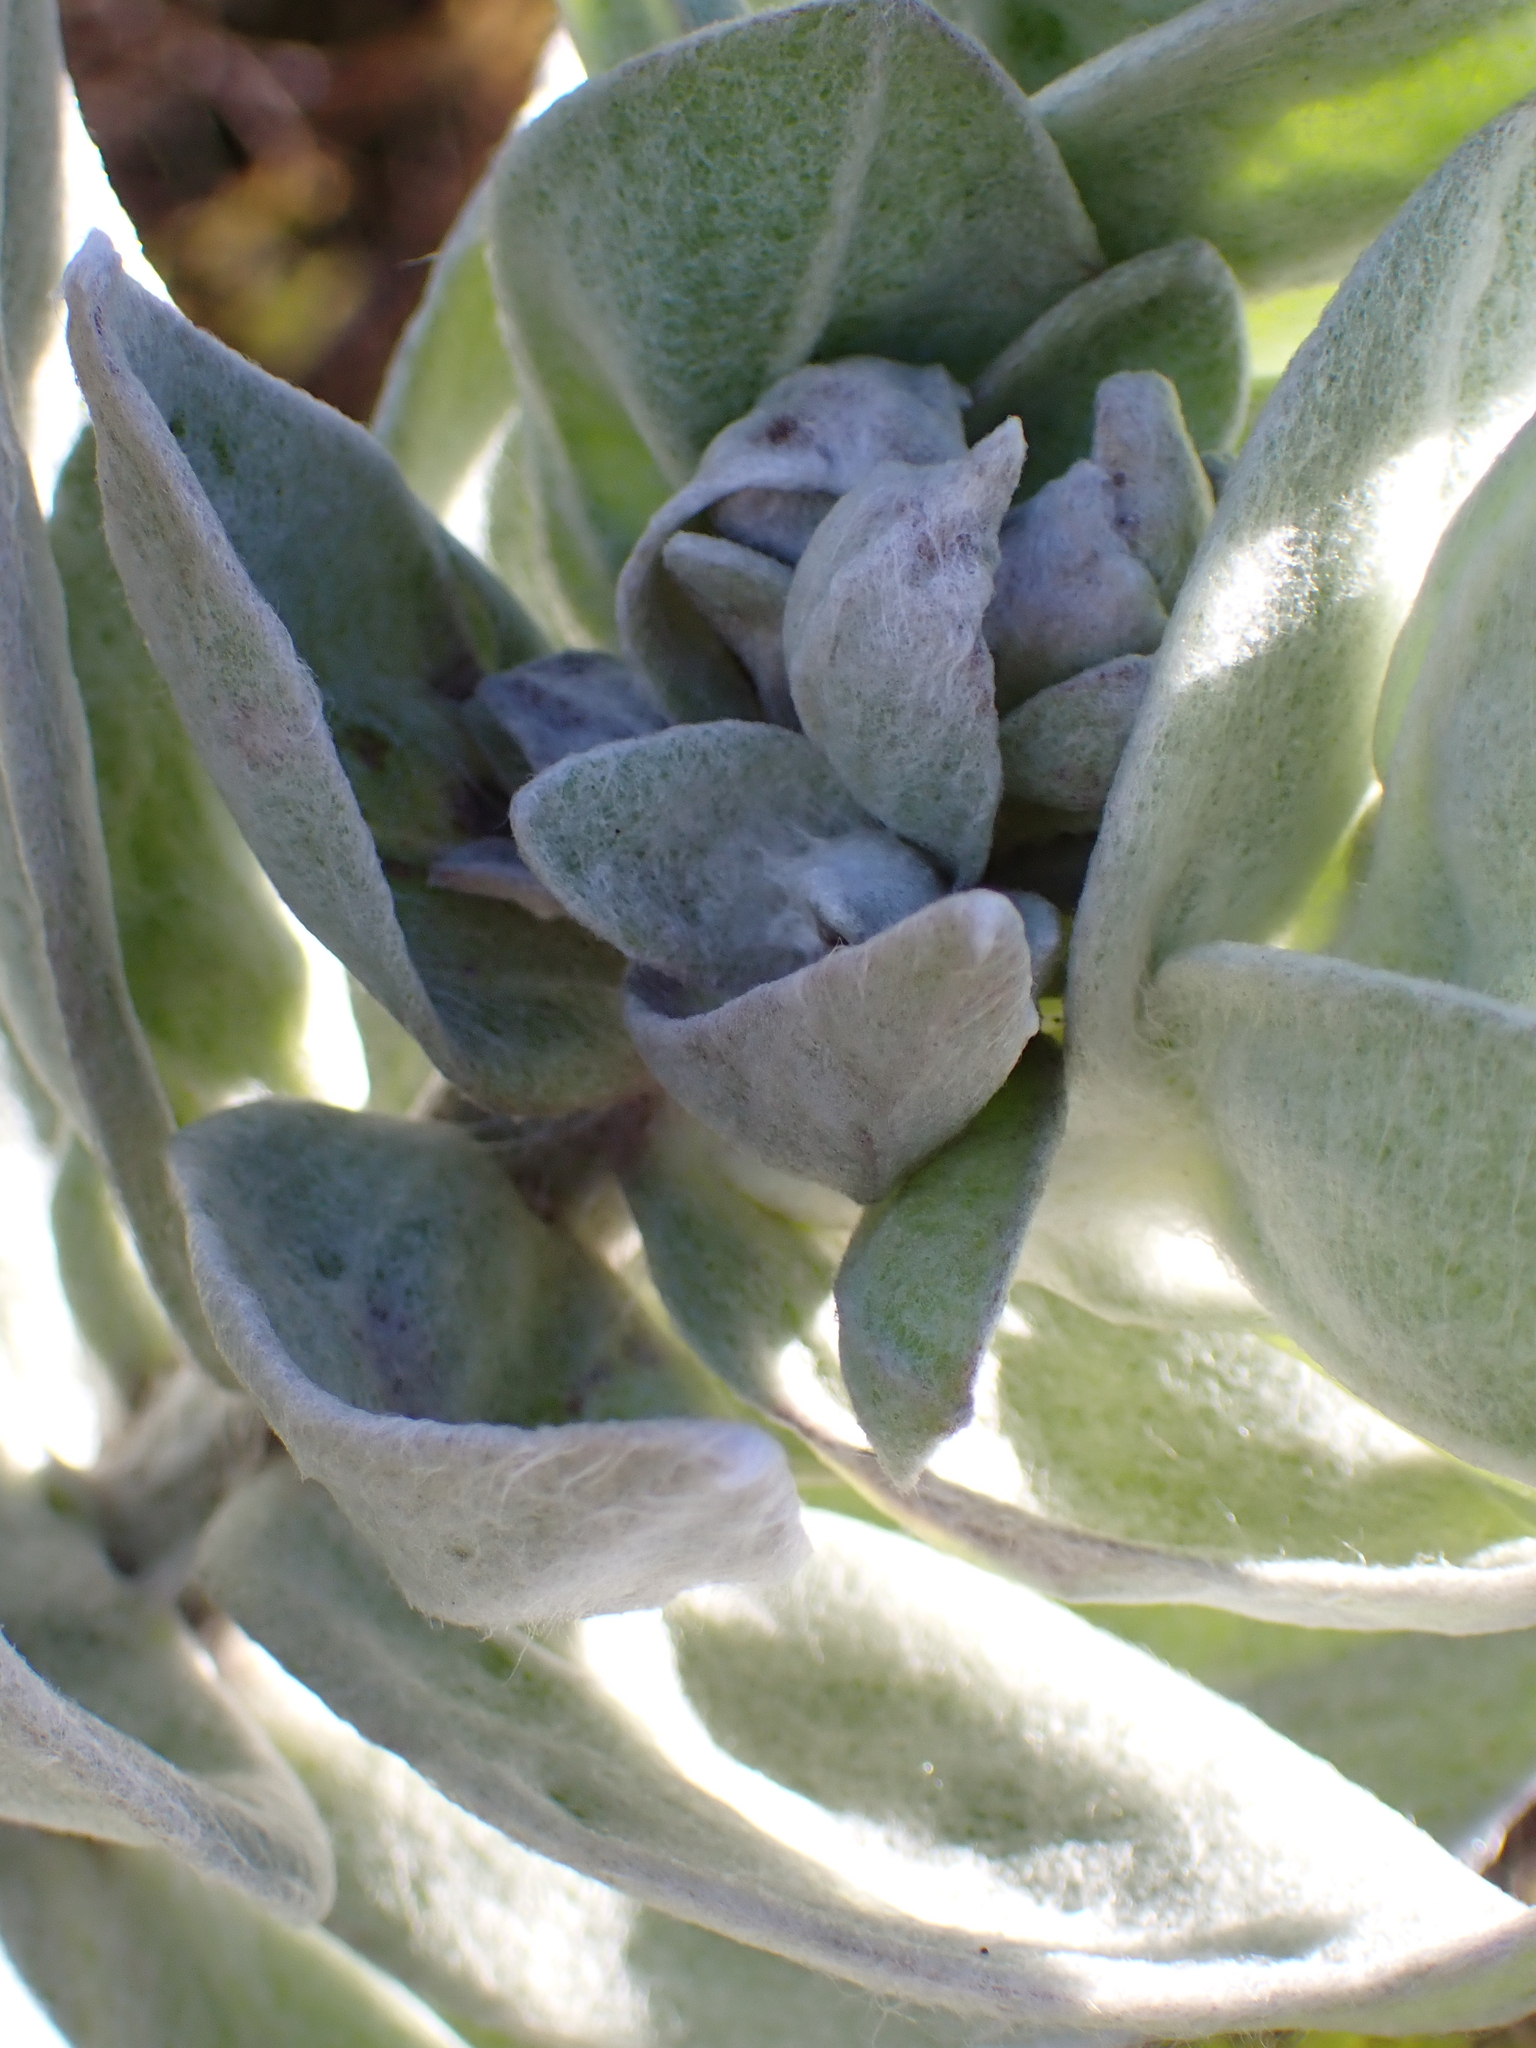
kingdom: Plantae
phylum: Tracheophyta
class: Magnoliopsida
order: Asterales
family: Asteraceae
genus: Syncarpha
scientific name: Syncarpha eximia
